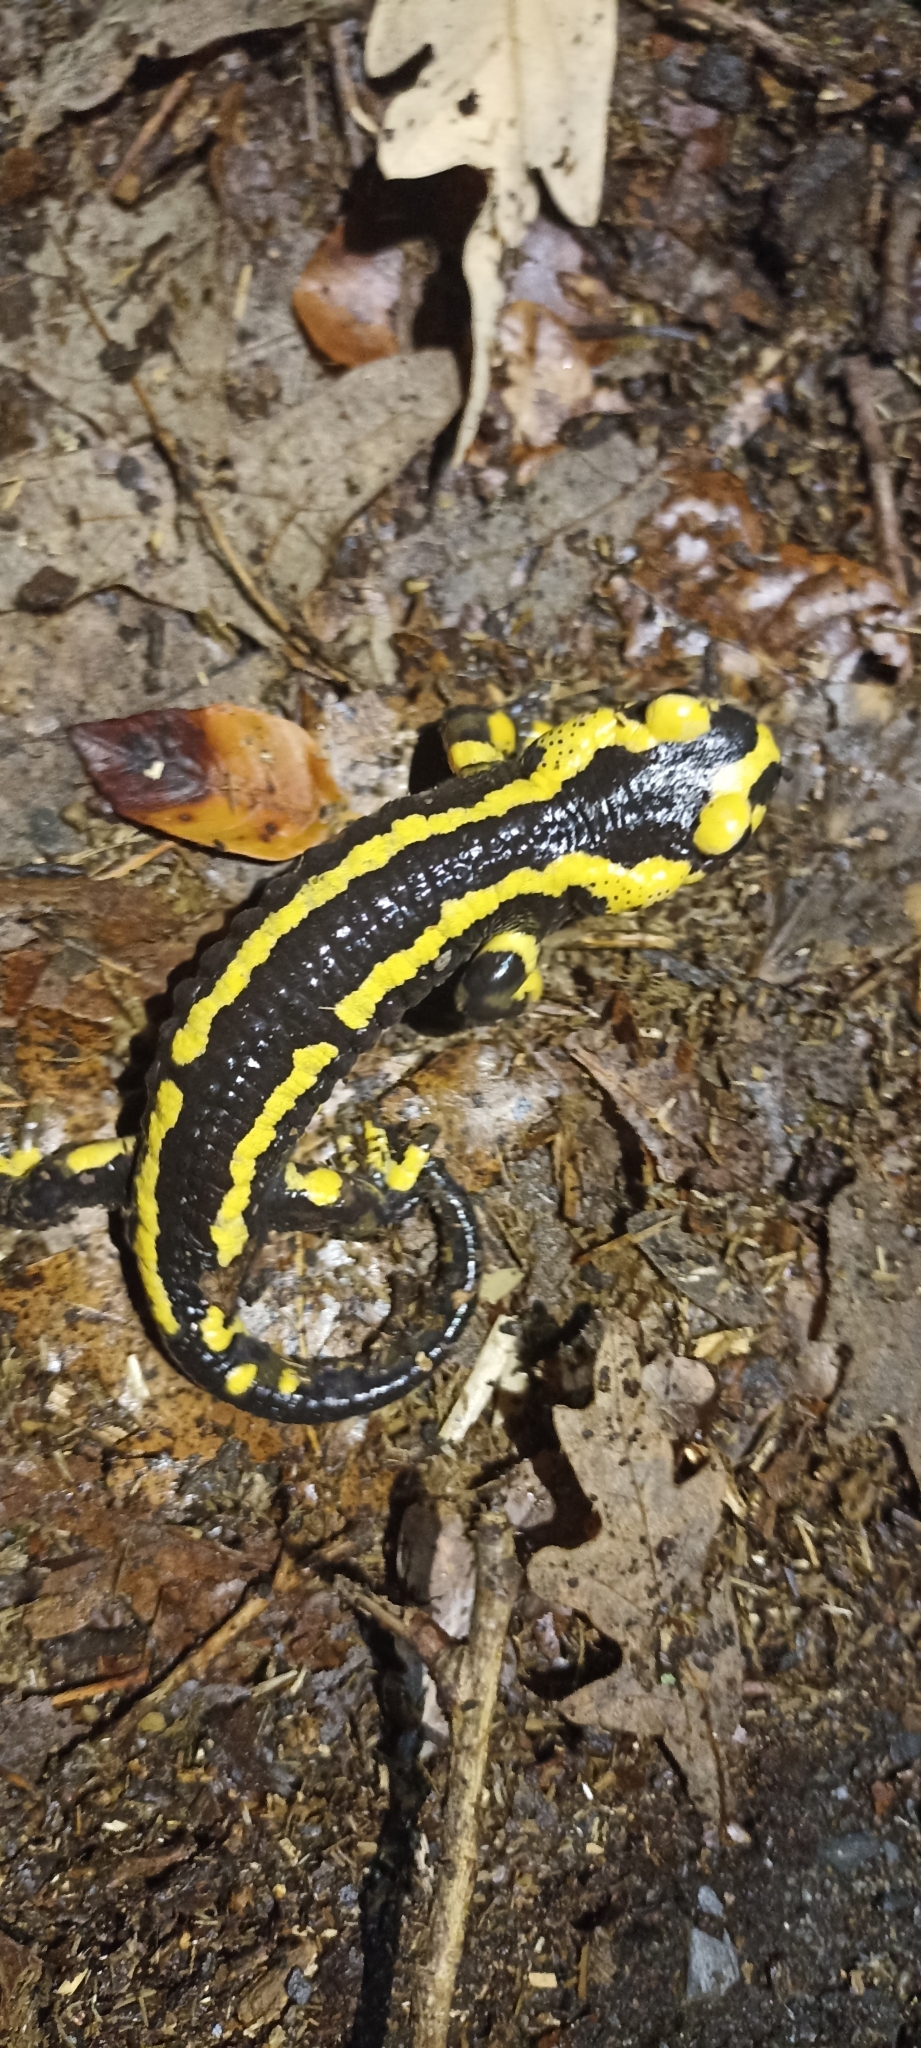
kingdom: Animalia
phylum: Chordata
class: Amphibia
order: Caudata
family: Salamandridae
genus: Salamandra
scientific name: Salamandra salamandra
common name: Fire salamander
